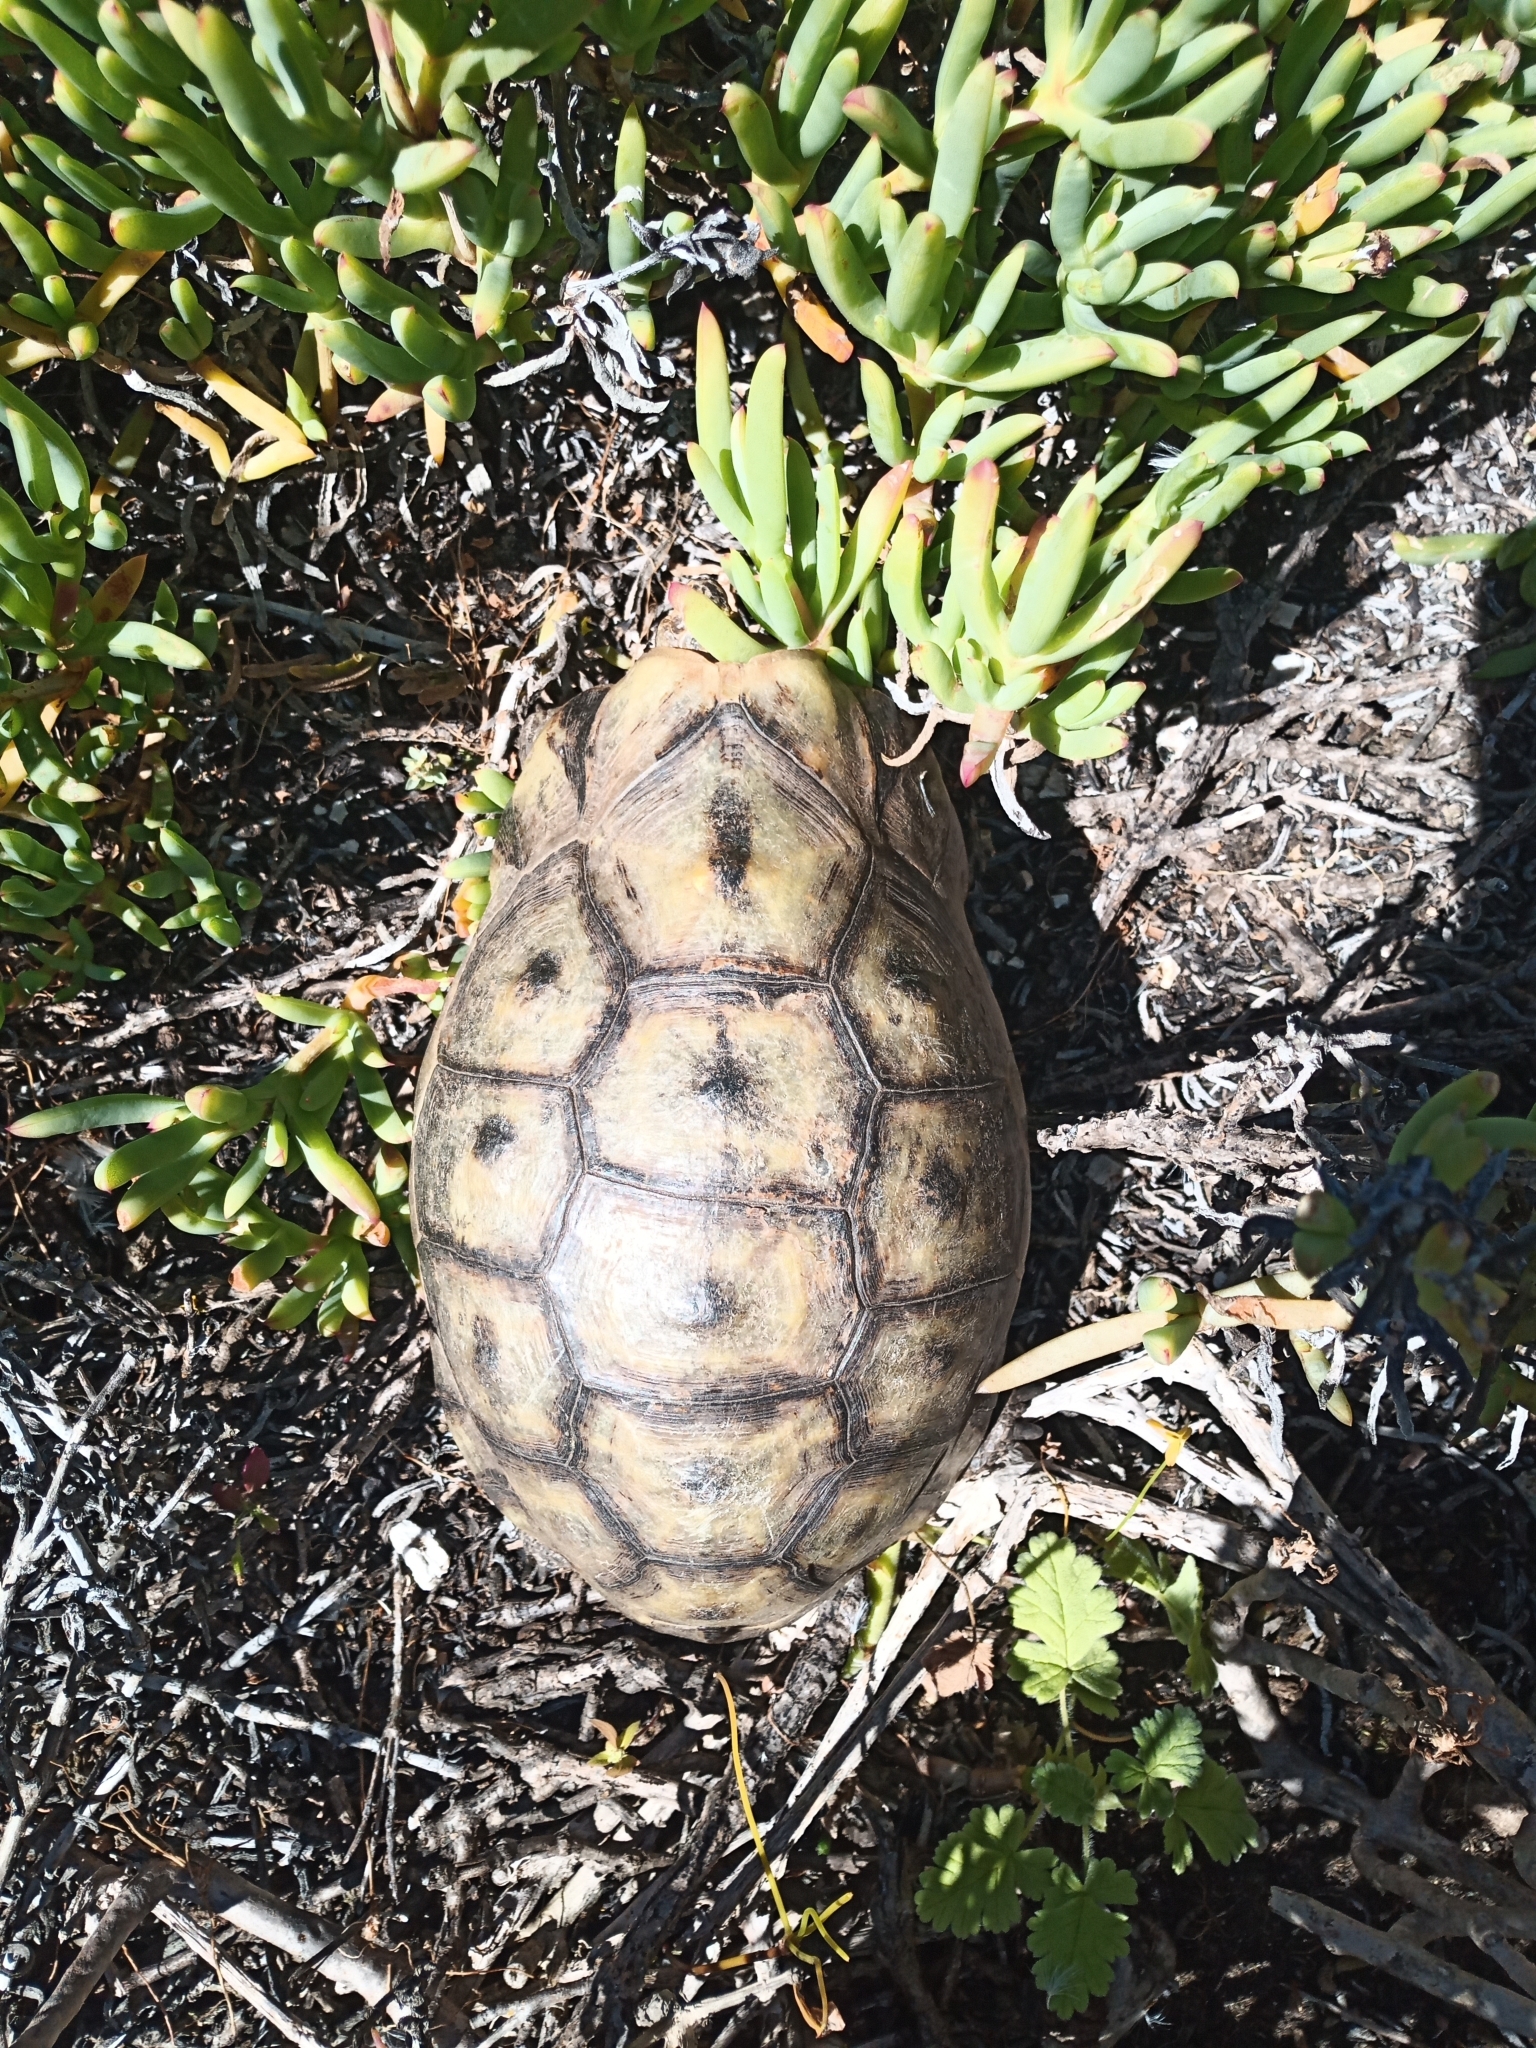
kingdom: Animalia
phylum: Chordata
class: Testudines
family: Testudinidae
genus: Chersina
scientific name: Chersina angulata
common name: South african bowsprit tortoise
